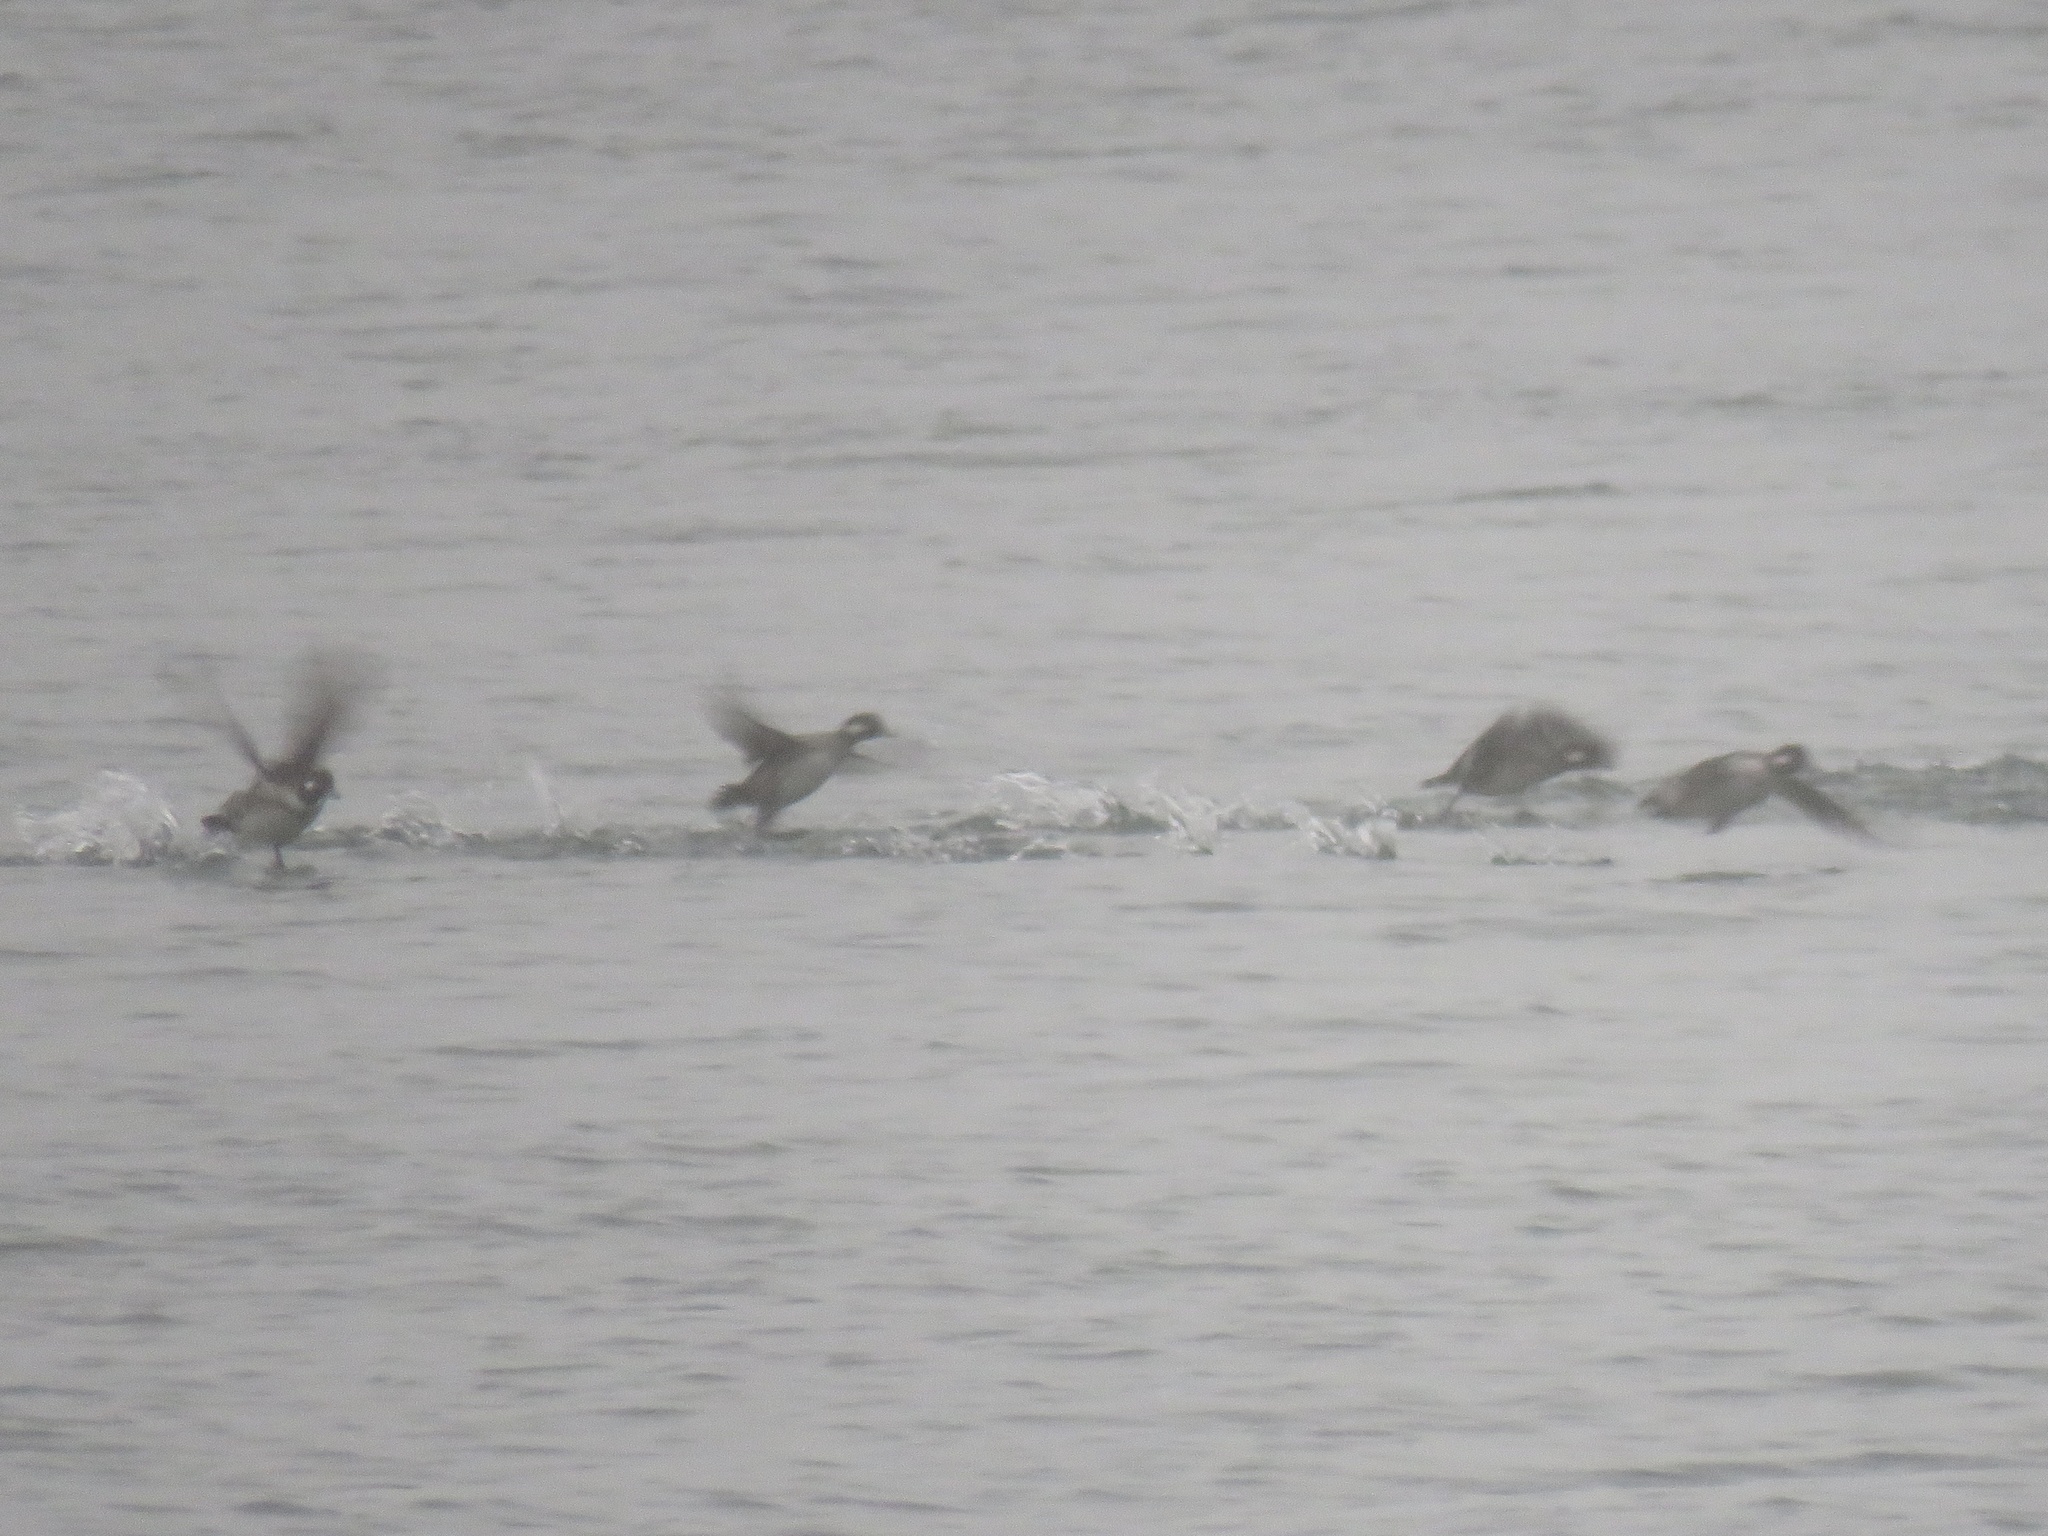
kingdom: Animalia
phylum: Chordata
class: Aves
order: Anseriformes
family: Anatidae
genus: Bucephala
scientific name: Bucephala albeola
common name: Bufflehead
